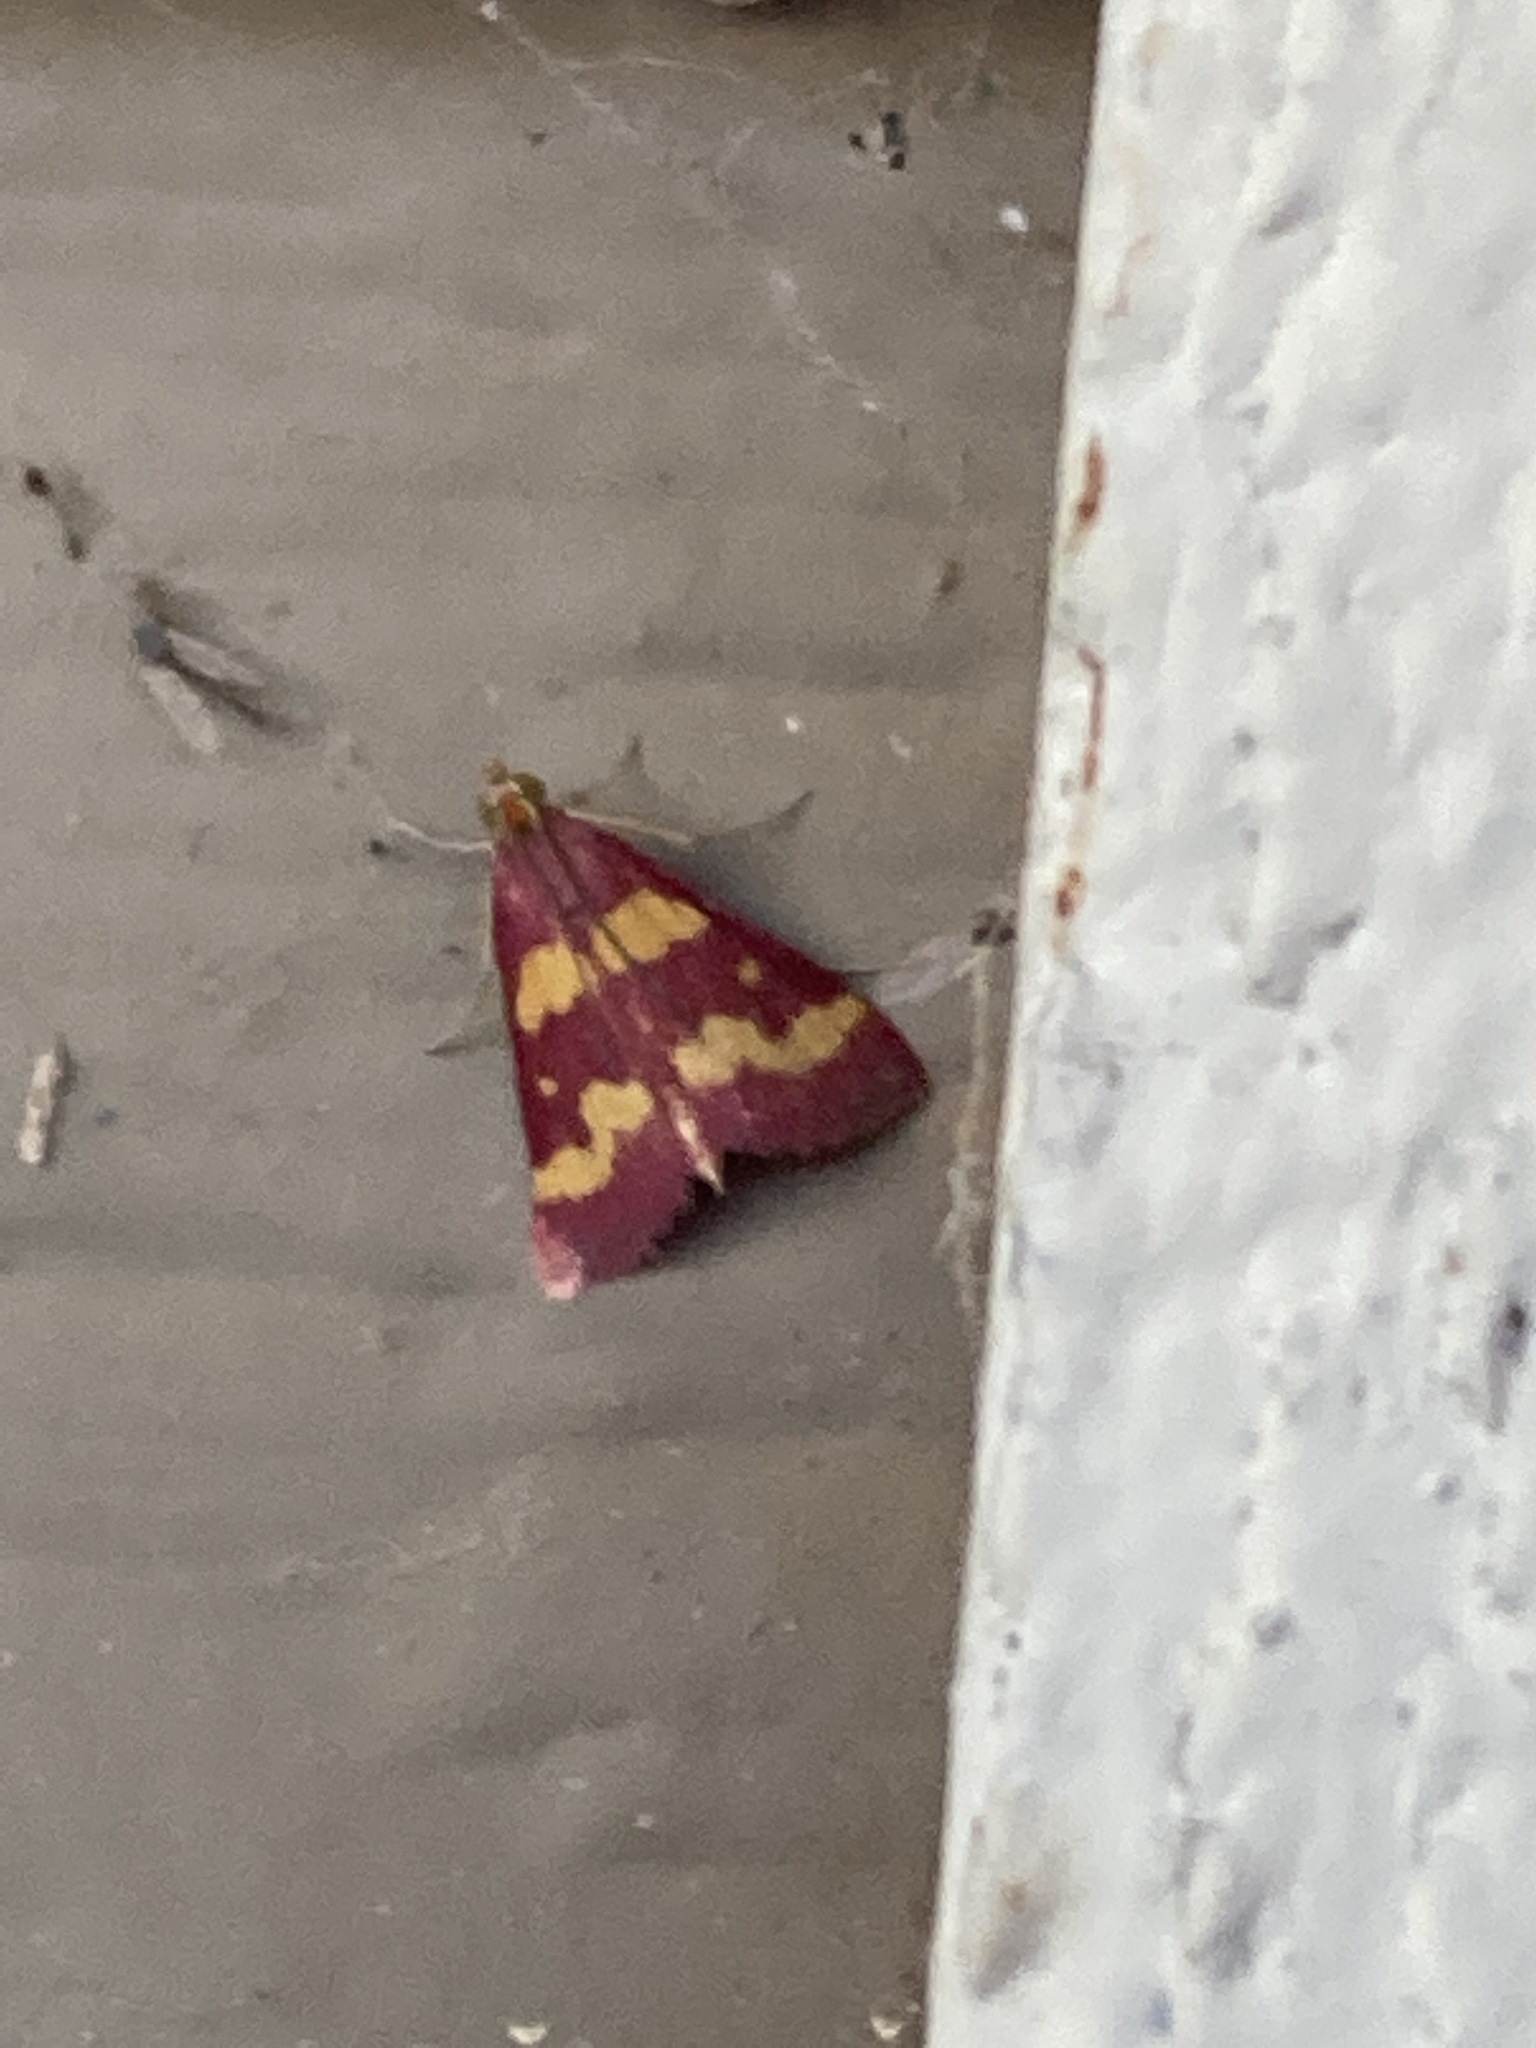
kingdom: Animalia
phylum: Arthropoda
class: Insecta
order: Lepidoptera
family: Crambidae
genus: Pyrausta
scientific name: Pyrausta tyralis
